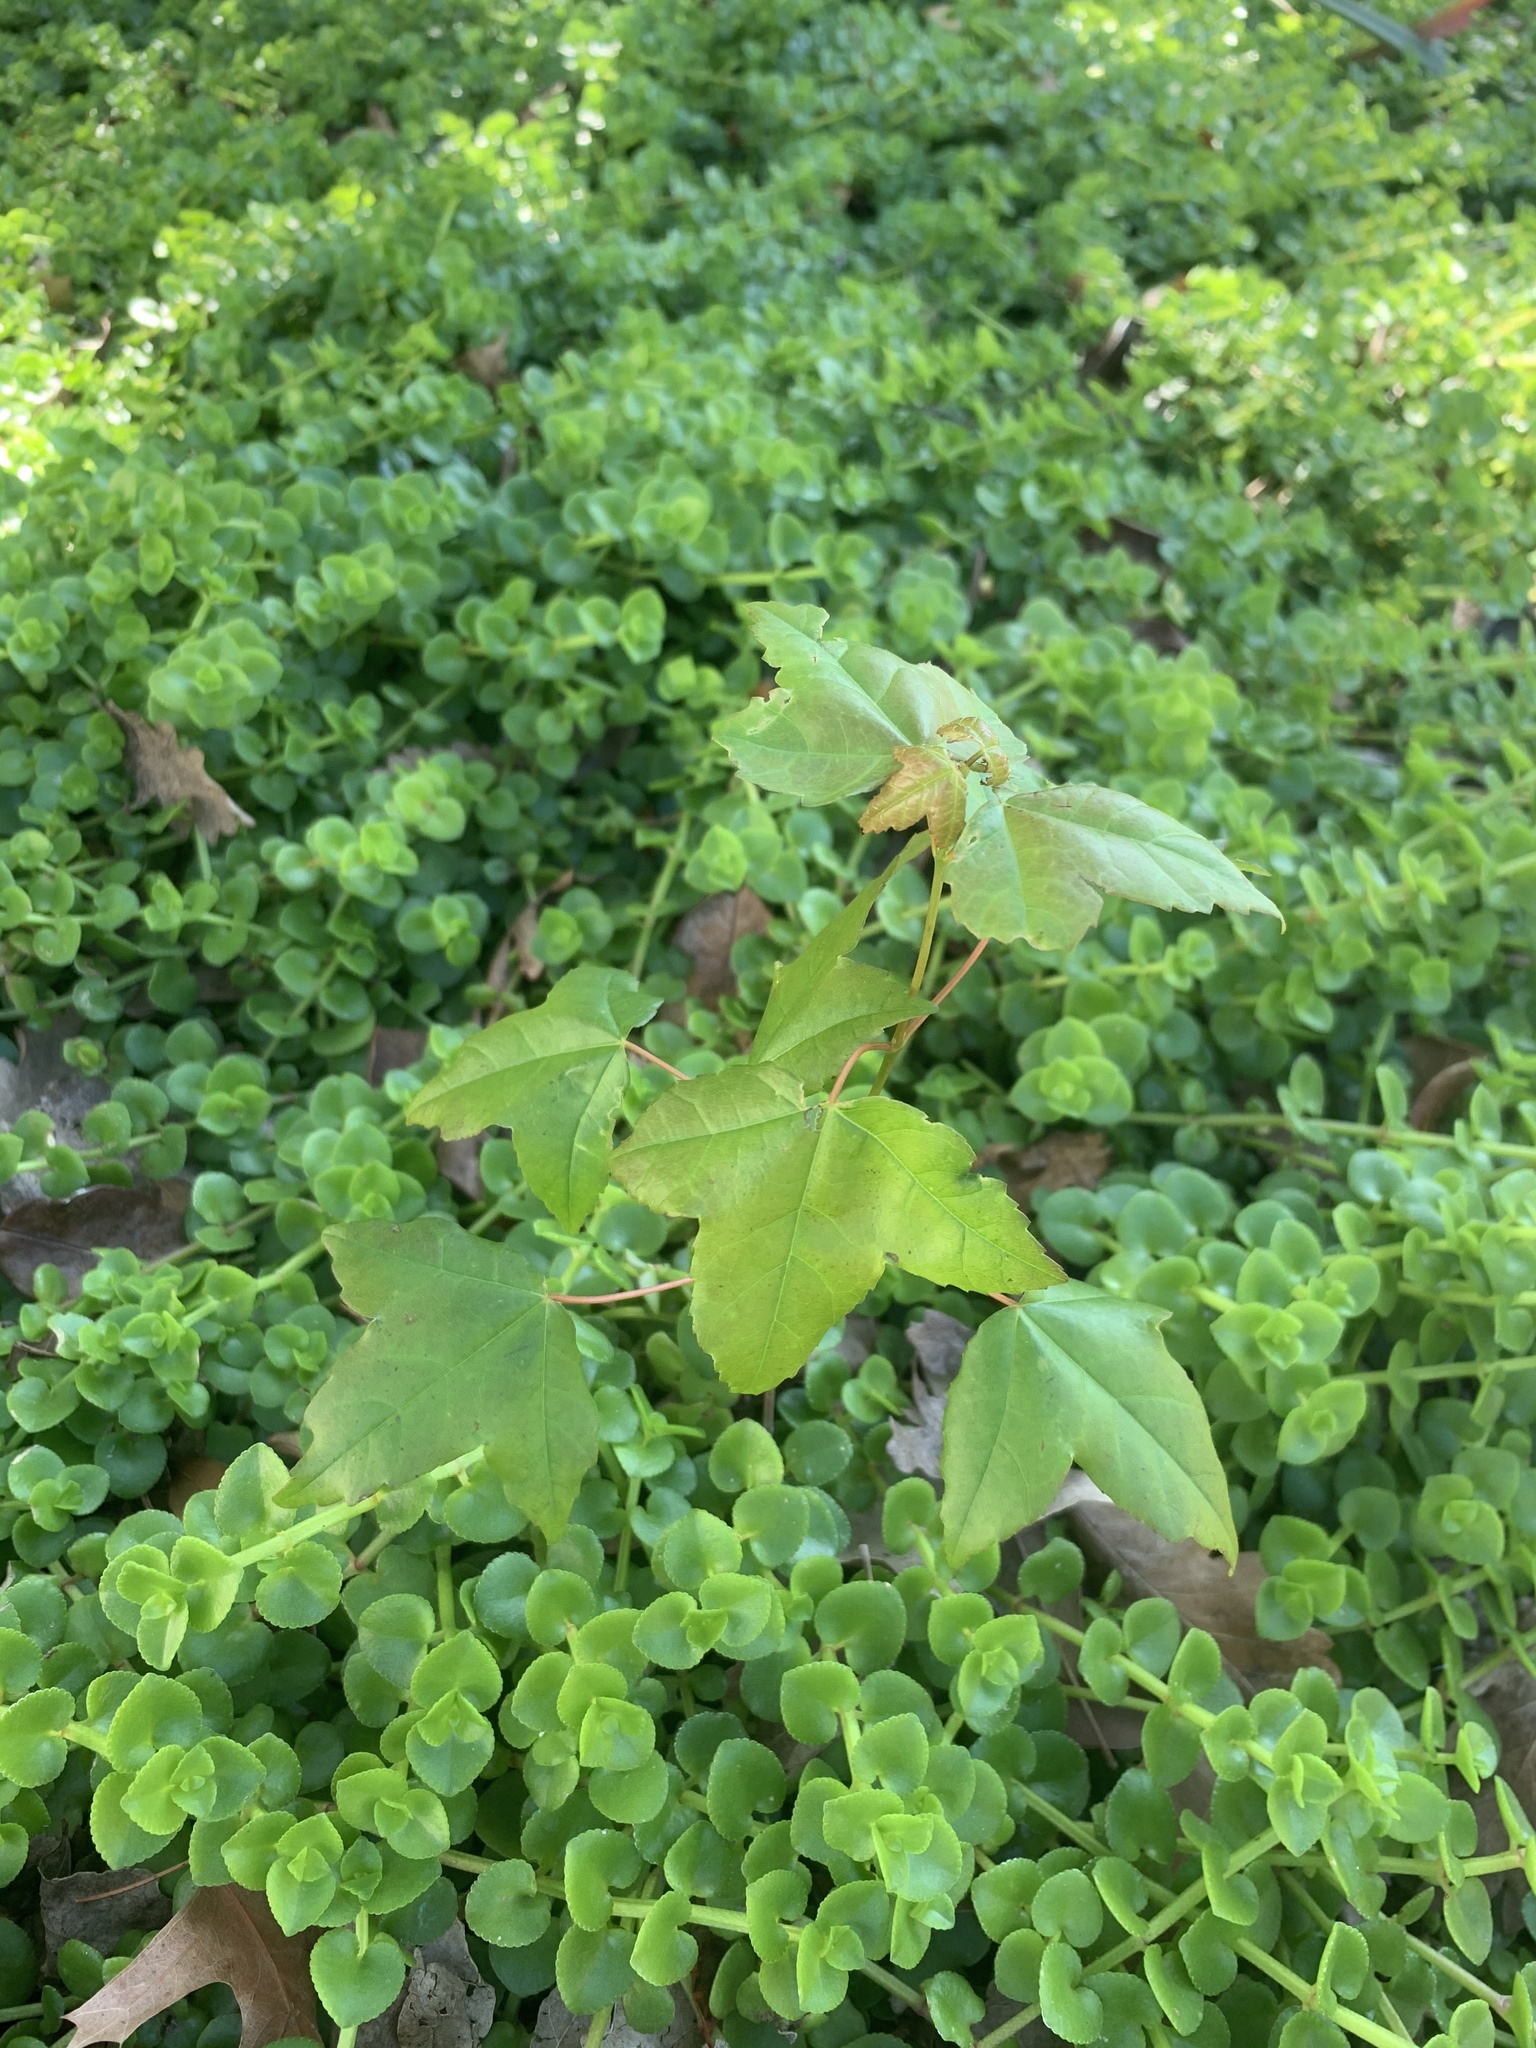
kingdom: Plantae
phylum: Tracheophyta
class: Magnoliopsida
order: Sapindales
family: Sapindaceae
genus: Acer
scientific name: Acer buergerianum
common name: Trident maple
